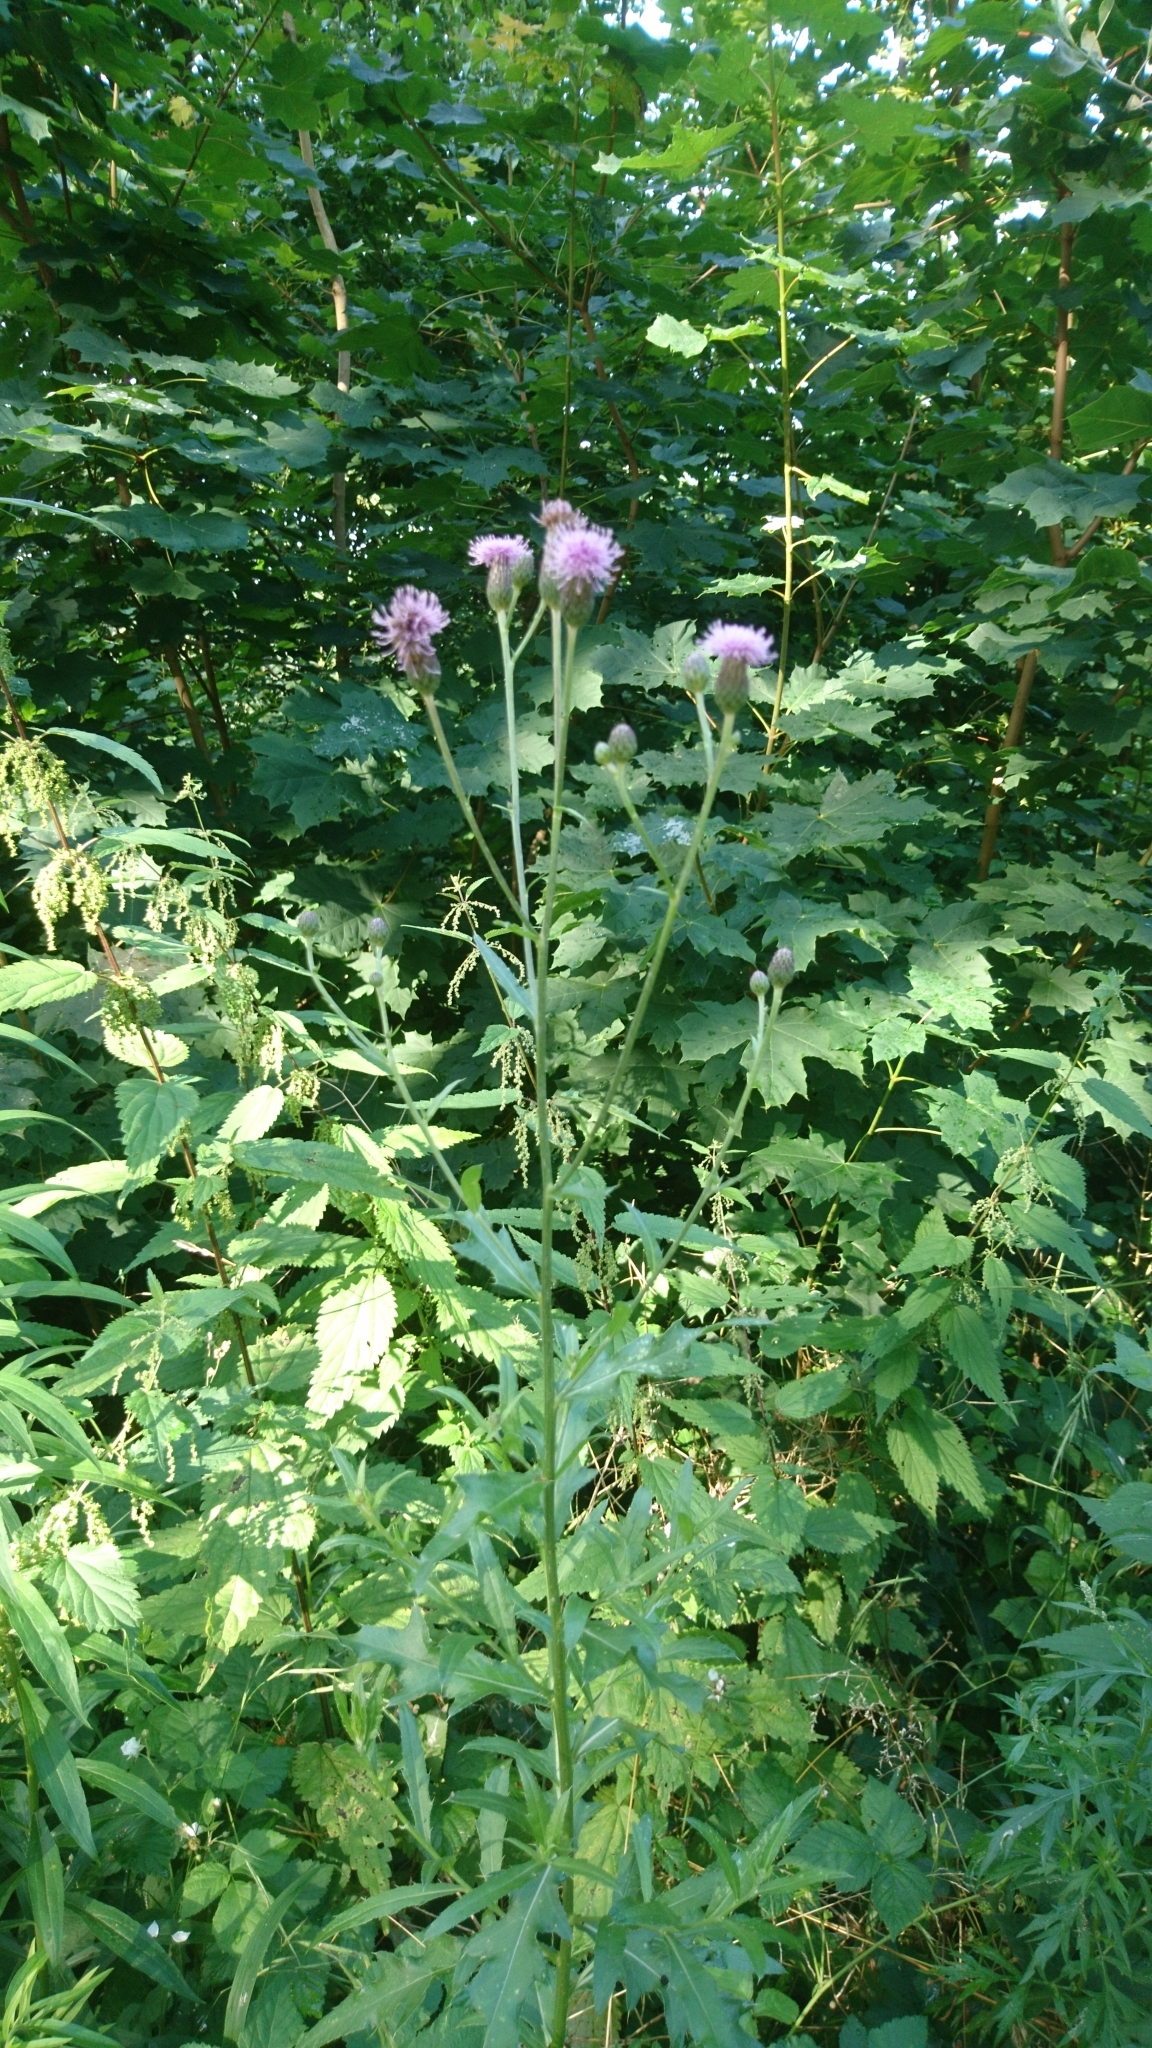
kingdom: Plantae
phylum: Tracheophyta
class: Magnoliopsida
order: Asterales
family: Asteraceae
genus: Cirsium
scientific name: Cirsium arvense
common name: Creeping thistle
